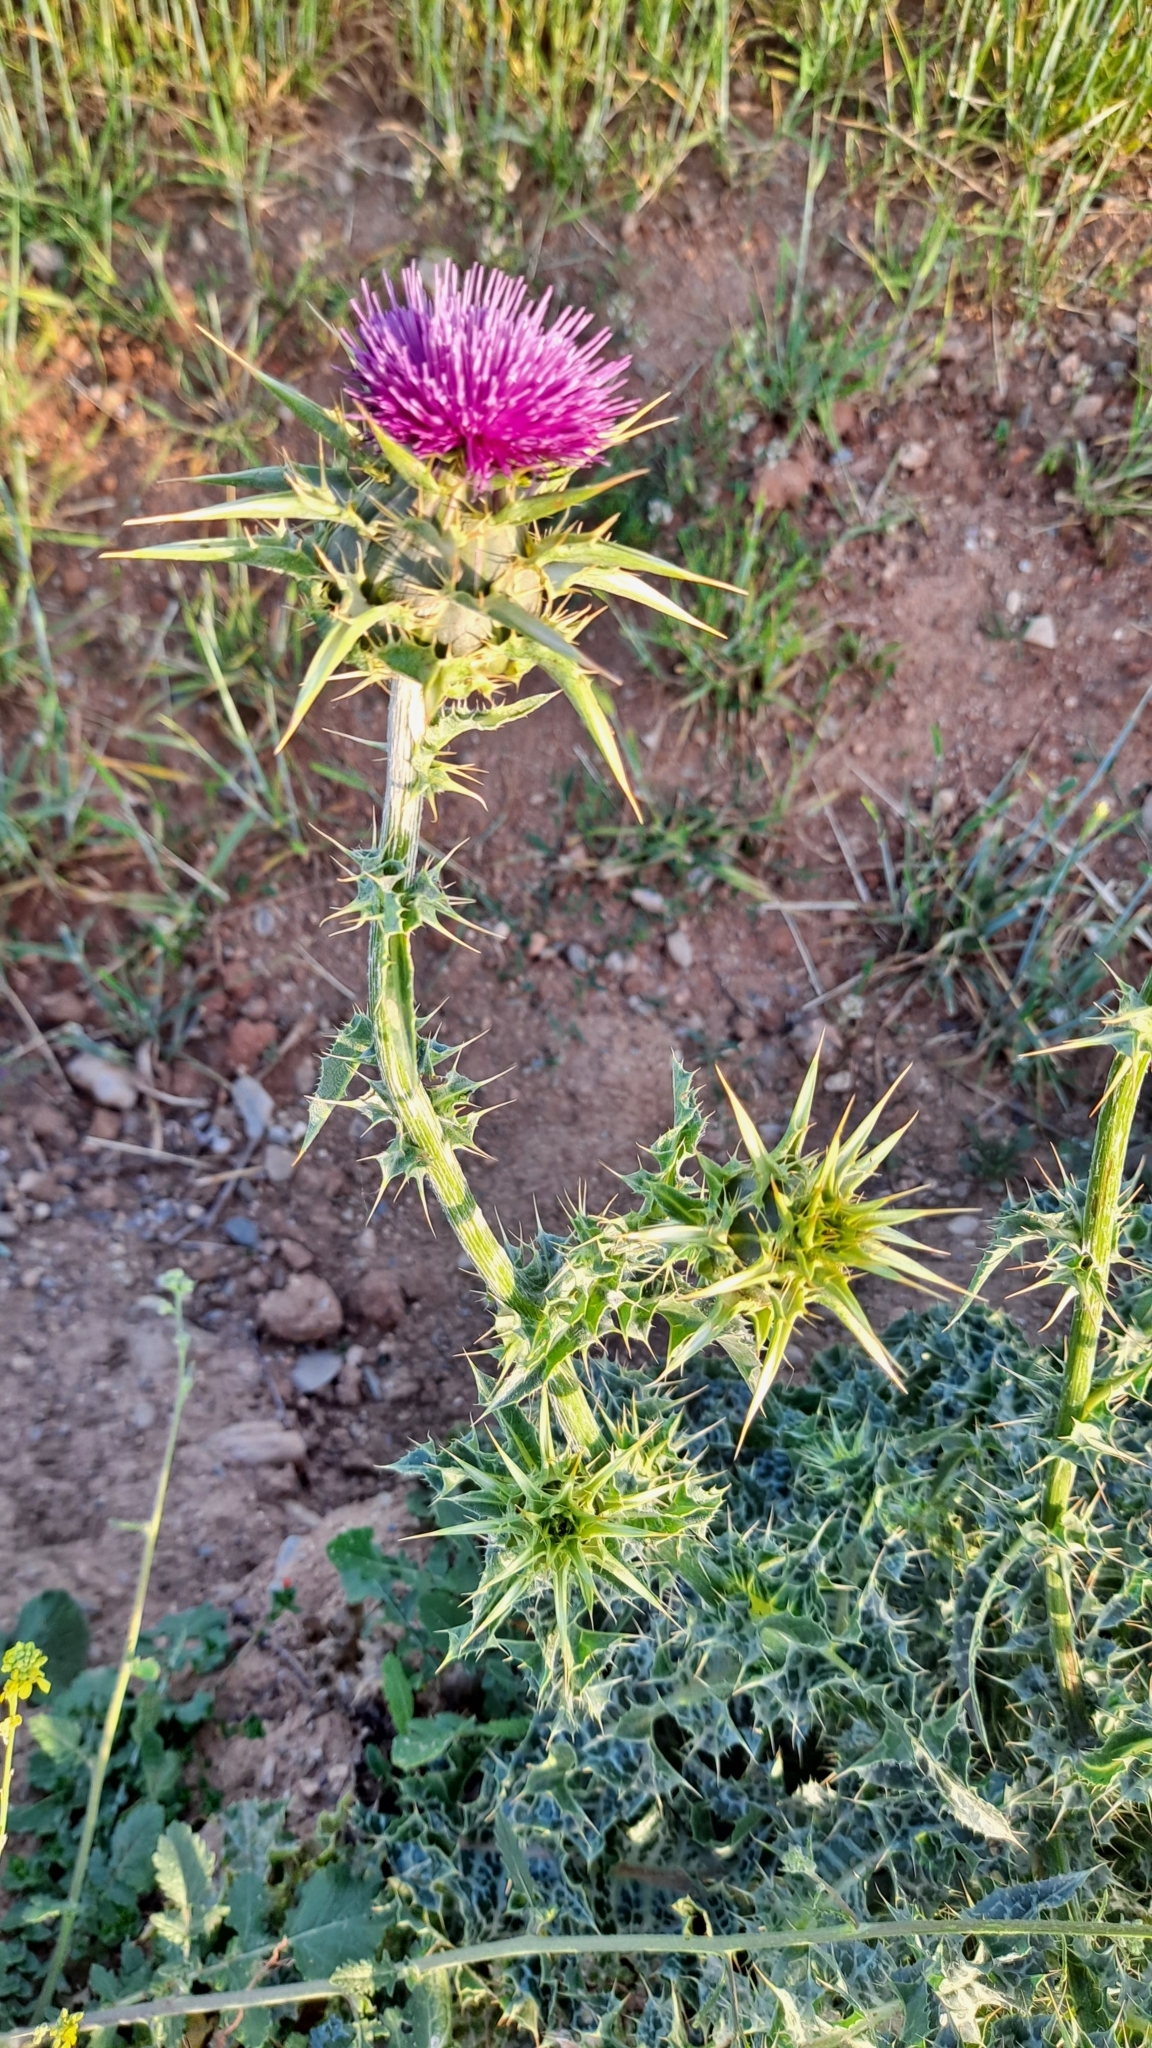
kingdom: Plantae
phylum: Tracheophyta
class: Magnoliopsida
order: Asterales
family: Asteraceae
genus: Silybum
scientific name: Silybum marianum
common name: Milk thistle
